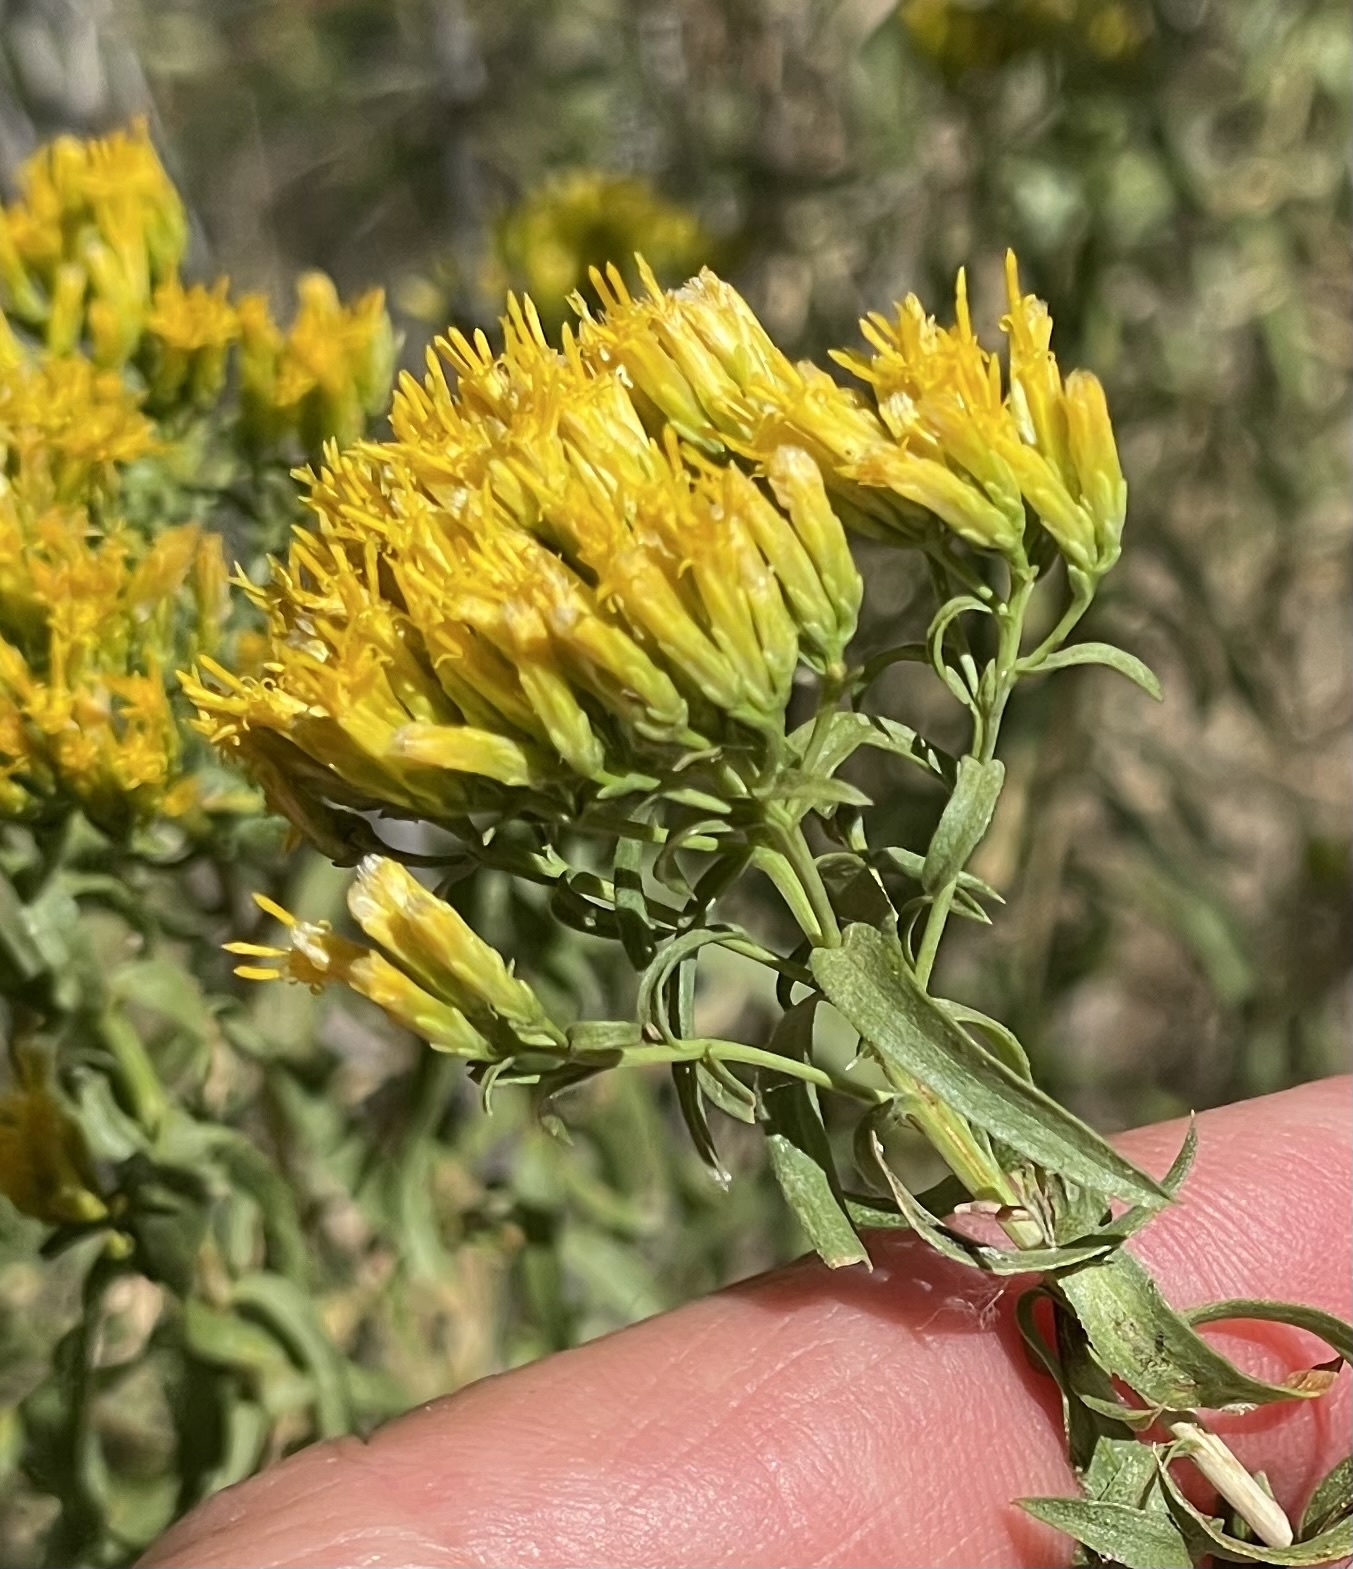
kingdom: Plantae
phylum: Tracheophyta
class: Magnoliopsida
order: Asterales
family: Asteraceae
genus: Chrysothamnus
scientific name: Chrysothamnus viscidiflorus
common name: Yellow rabbitbrush
